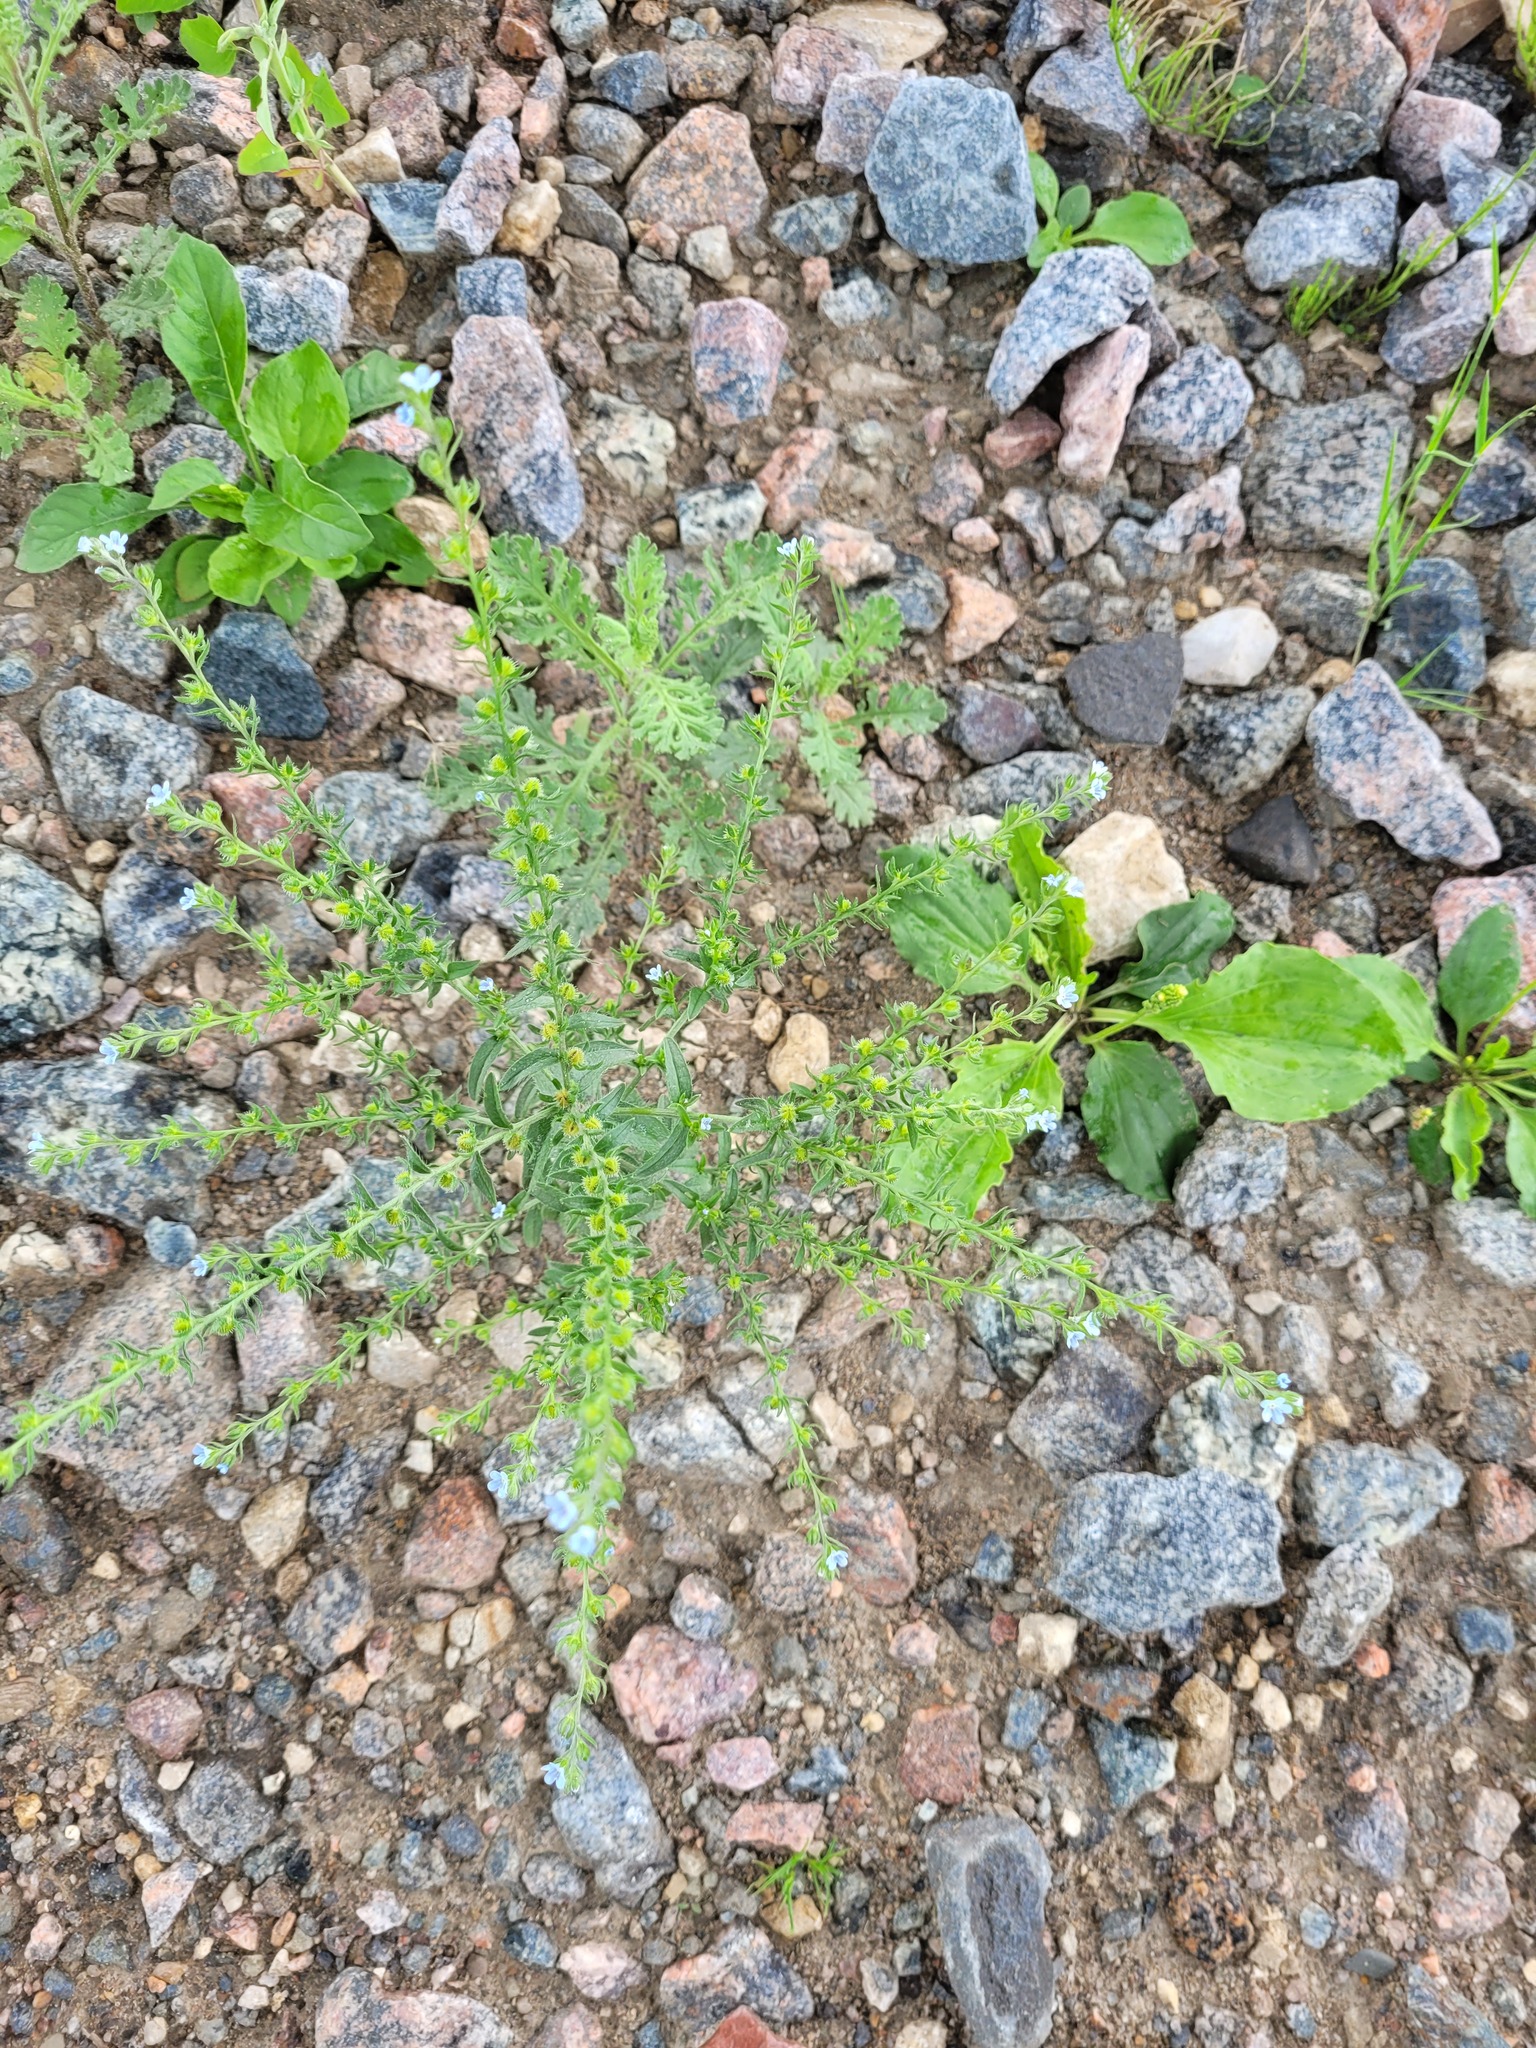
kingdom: Plantae
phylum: Tracheophyta
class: Magnoliopsida
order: Boraginales
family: Boraginaceae
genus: Lappula
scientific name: Lappula squarrosa
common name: European stickseed
